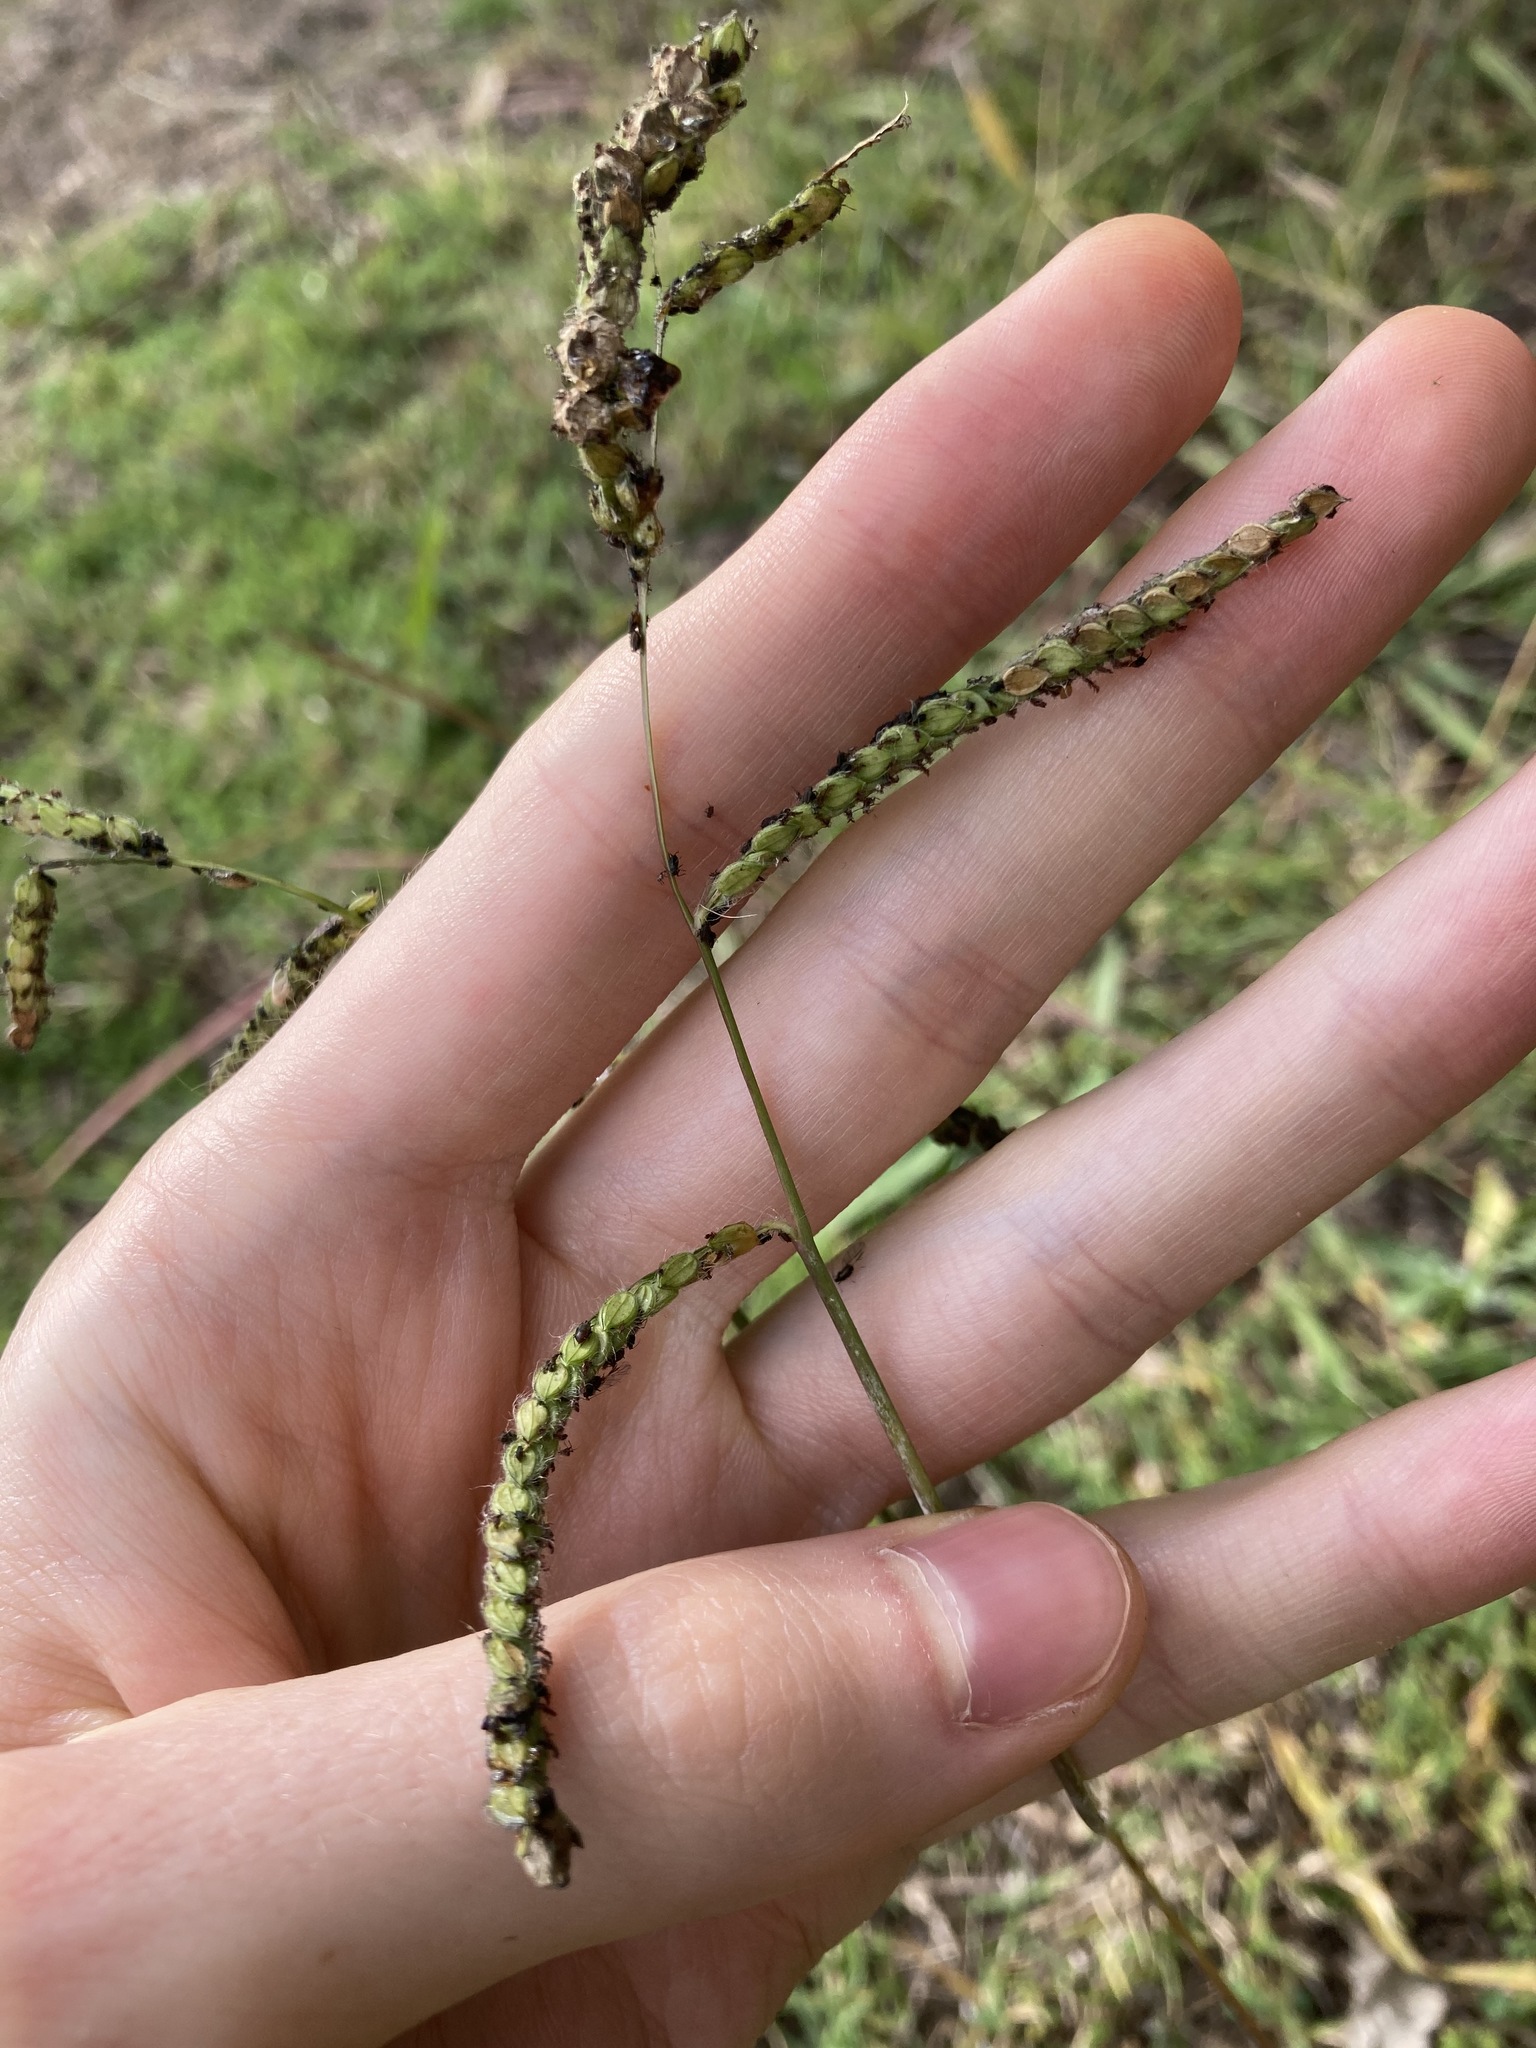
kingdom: Plantae
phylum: Tracheophyta
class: Liliopsida
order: Poales
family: Poaceae
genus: Paspalum
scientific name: Paspalum dilatatum
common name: Dallisgrass
